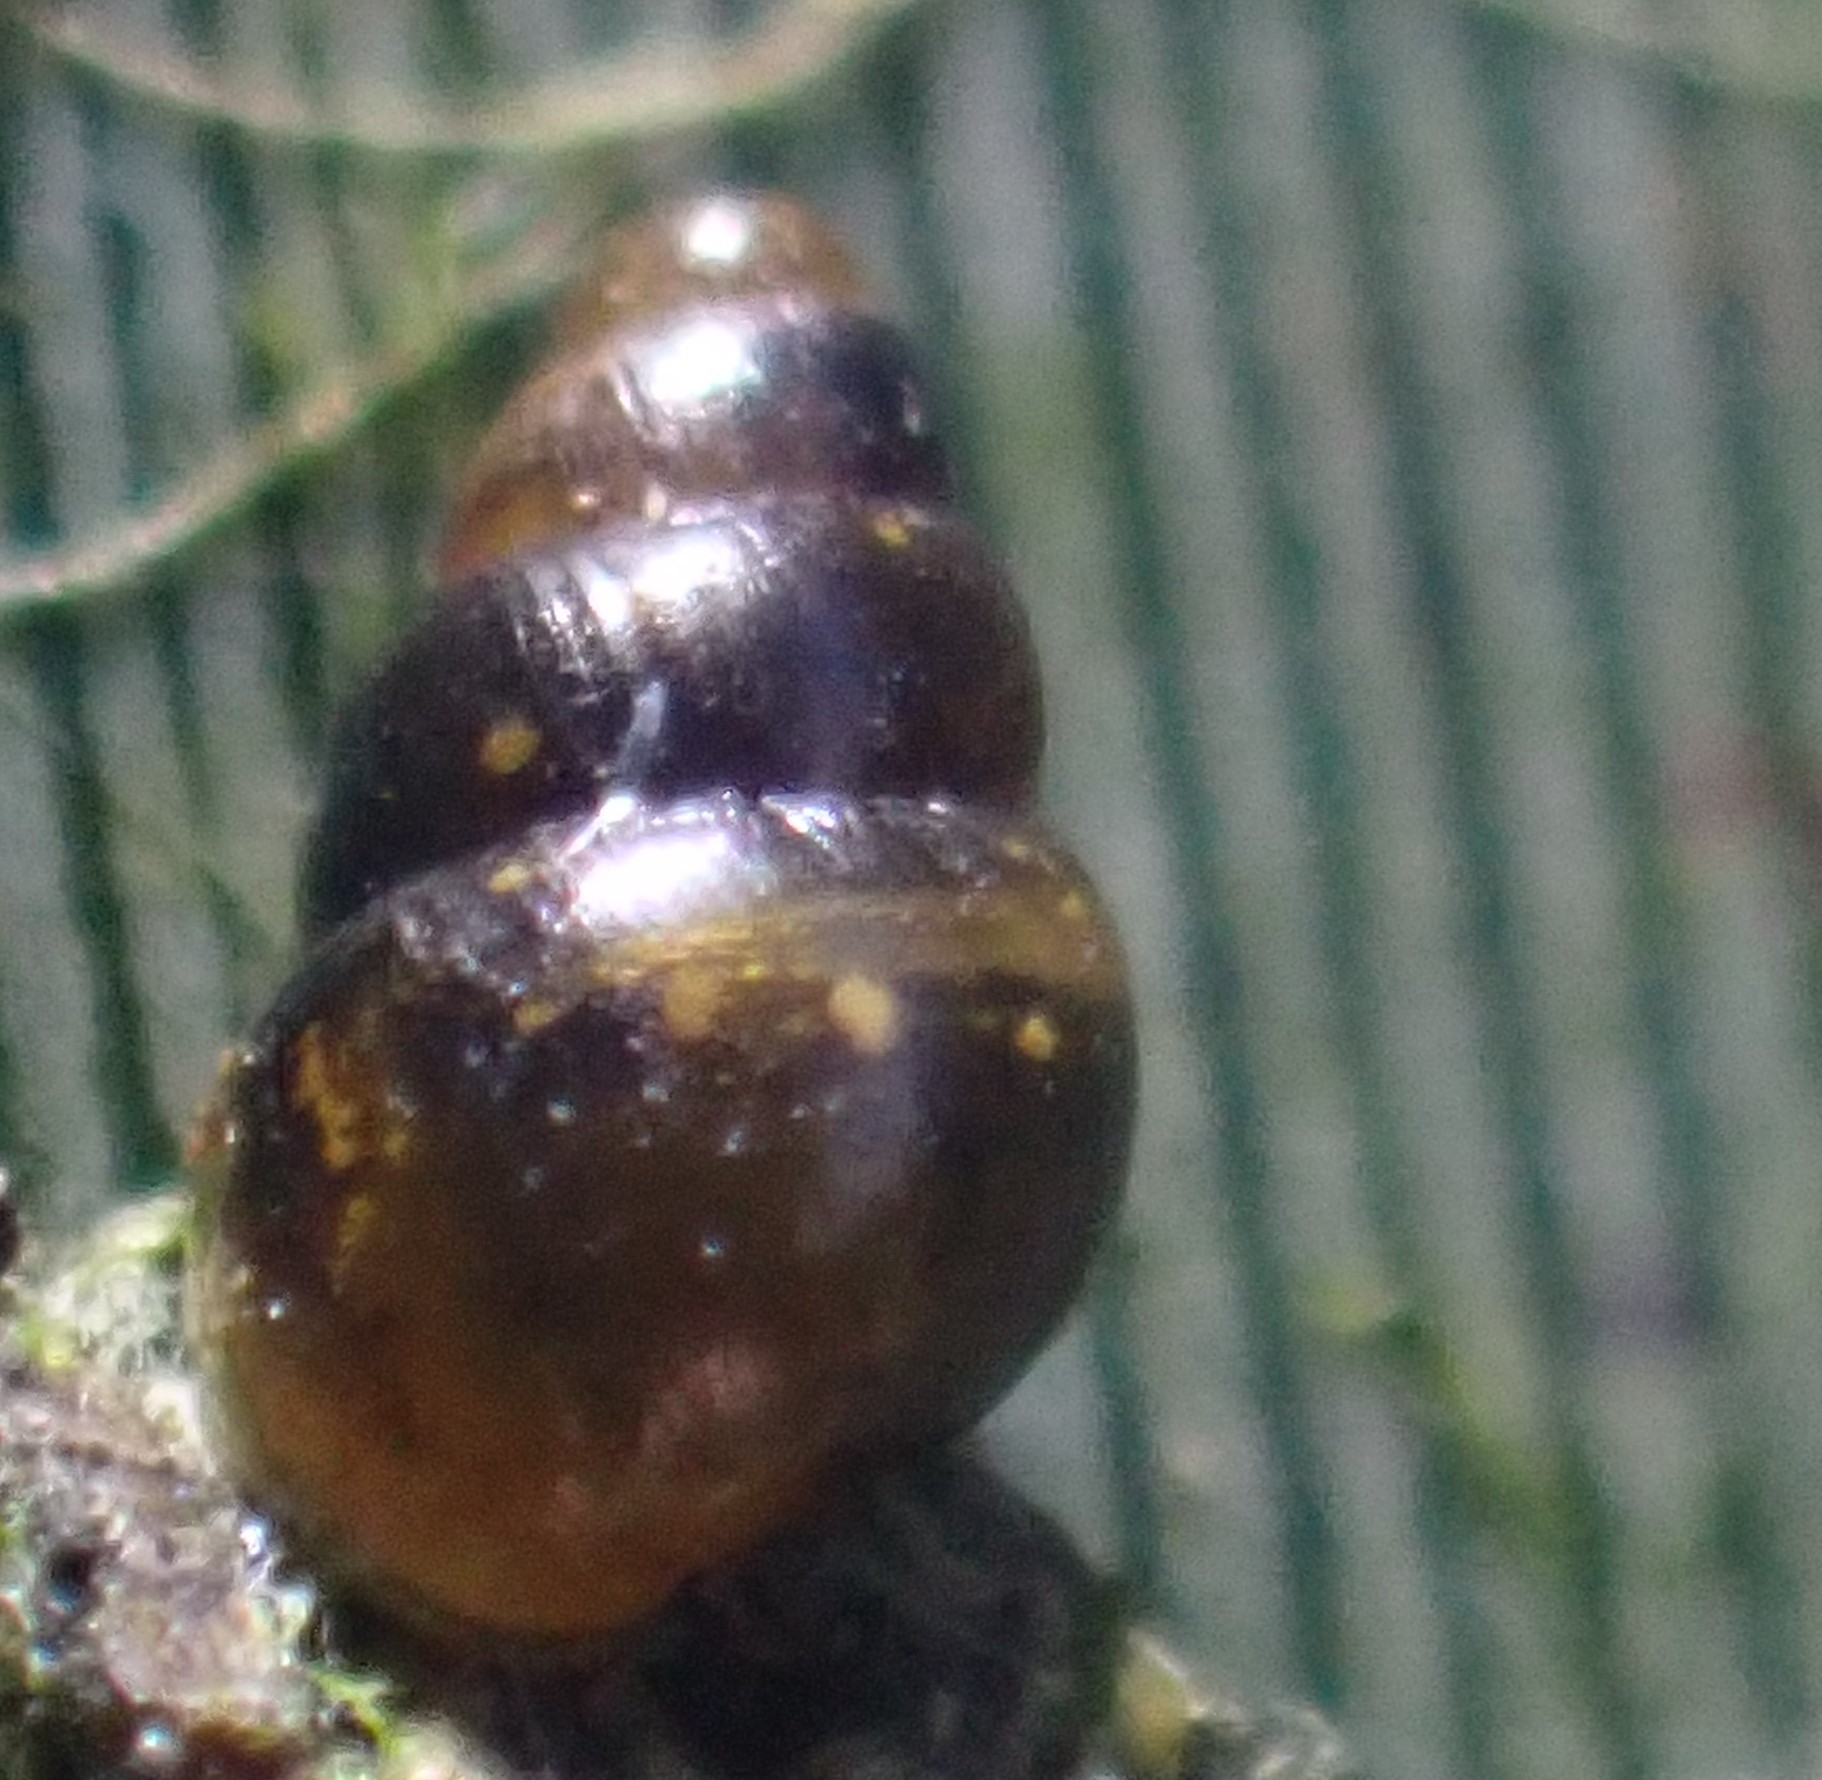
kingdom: Animalia
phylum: Mollusca
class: Gastropoda
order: Stylommatophora
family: Achatinellidae
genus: Tornatellinops
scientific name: Tornatellinops novoseelandicus
